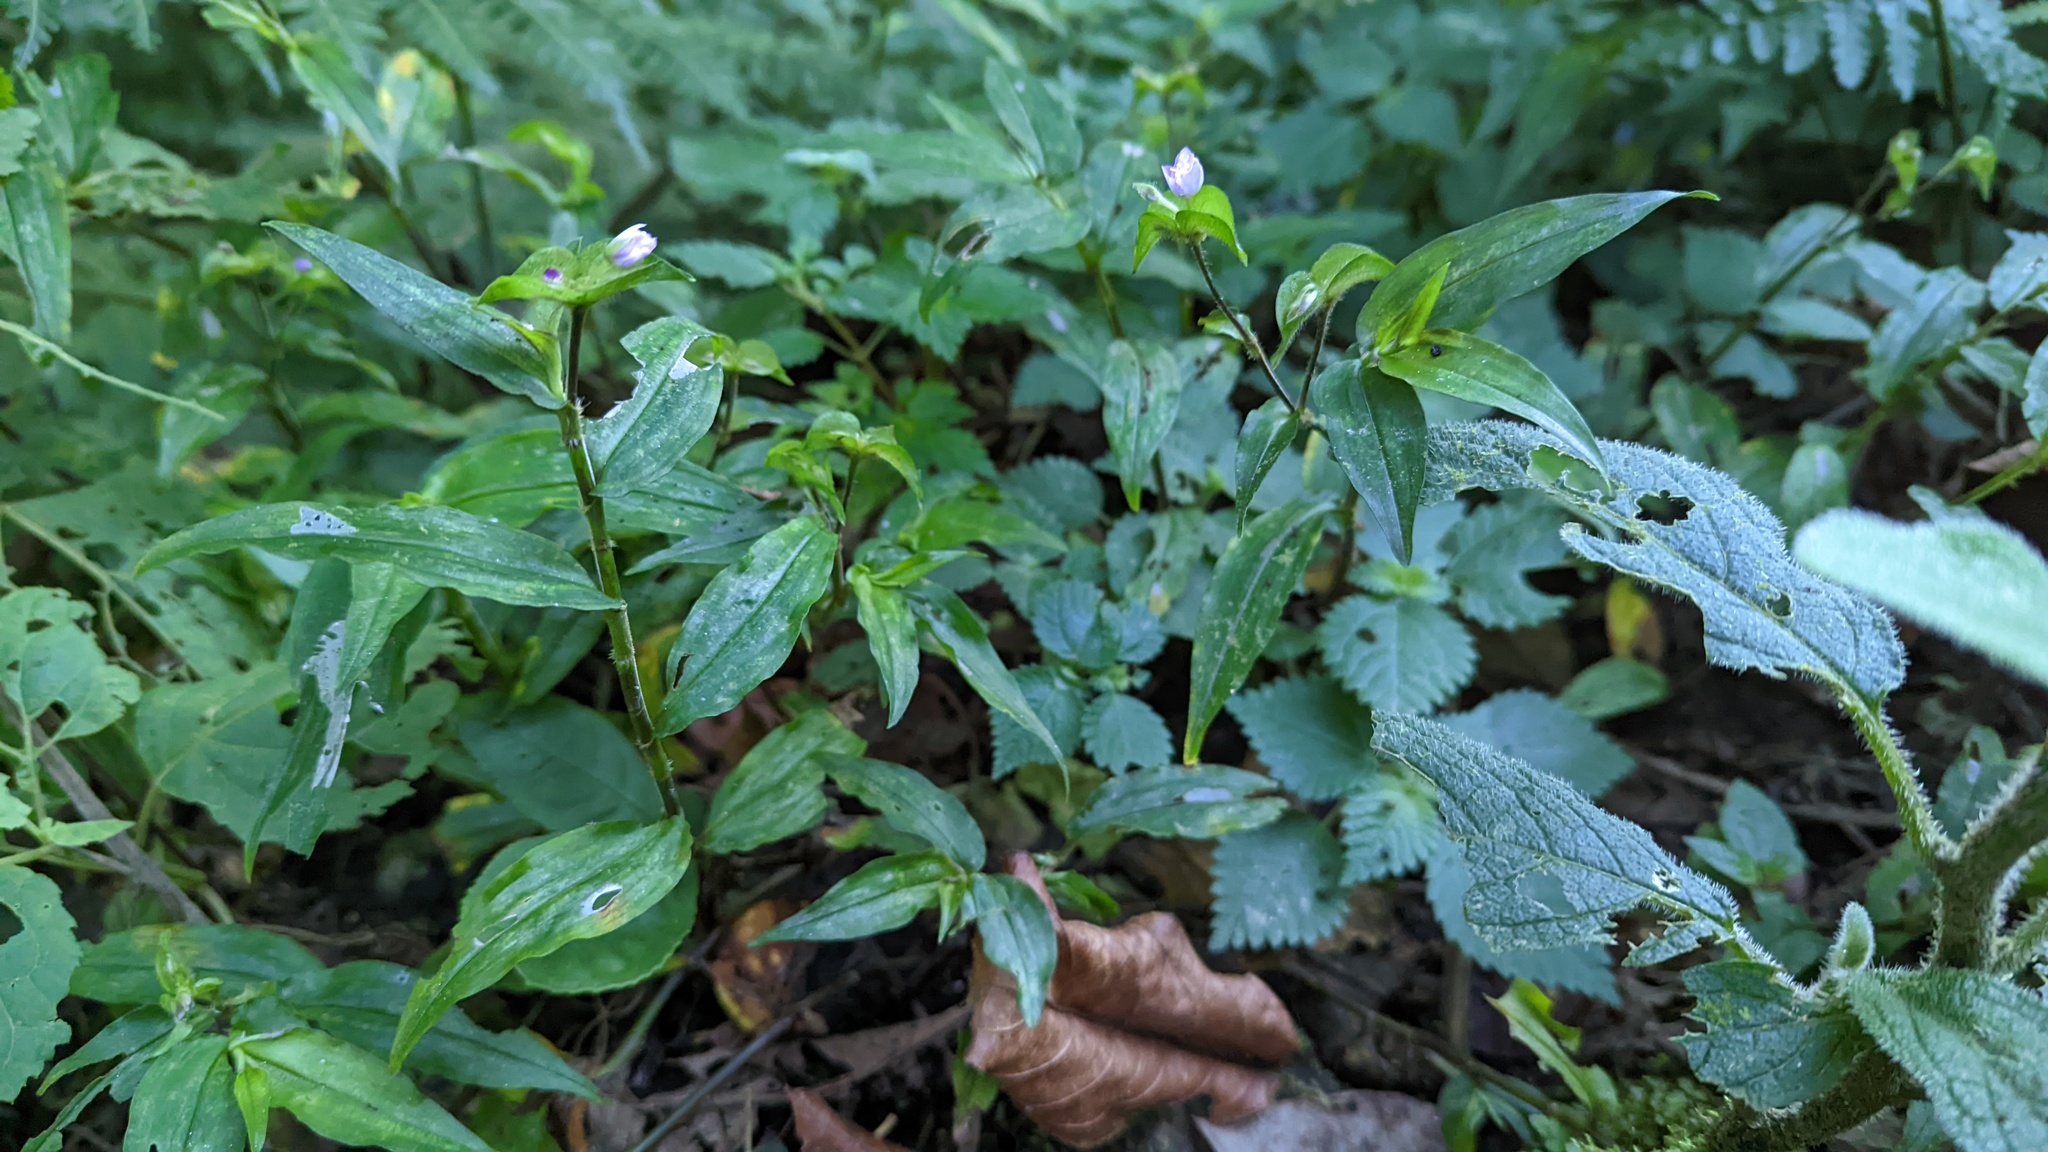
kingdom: Plantae
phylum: Tracheophyta
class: Liliopsida
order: Commelinales
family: Commelinaceae
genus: Tradescantia
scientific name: Tradescantia poelliae
